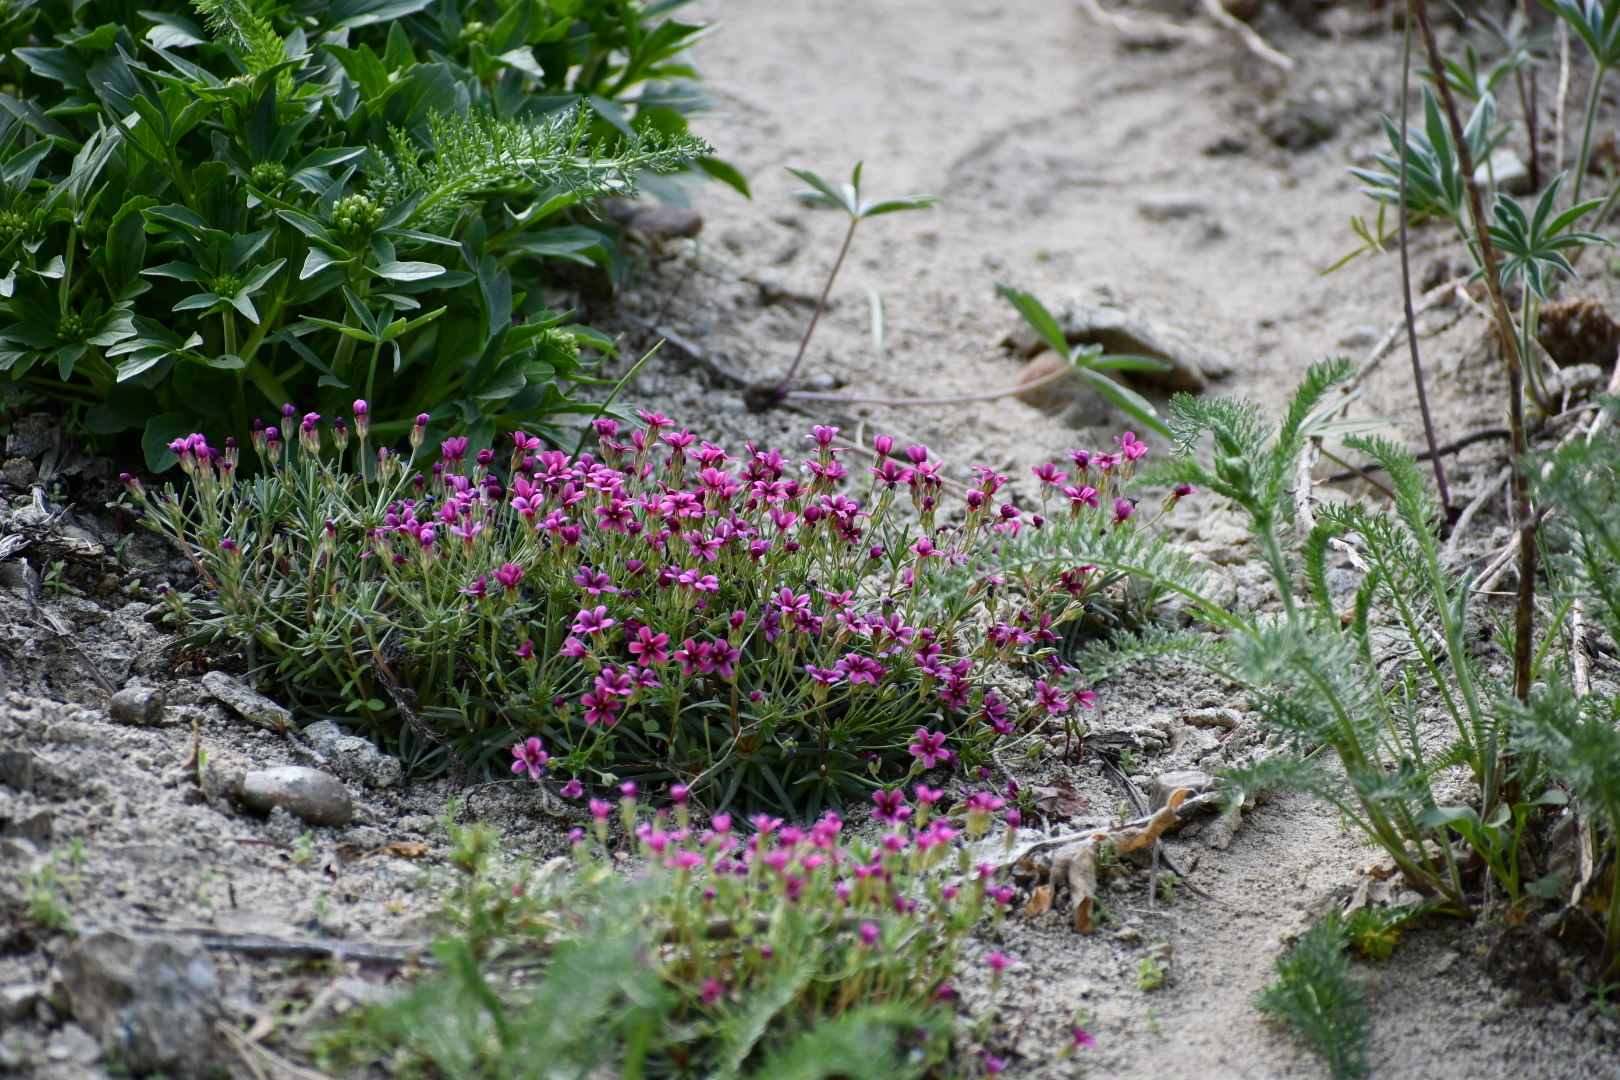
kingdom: Plantae
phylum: Tracheophyta
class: Magnoliopsida
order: Ericales
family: Primulaceae
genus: Androsace
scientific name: Androsace nivalis
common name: Snow dwarf-primrose
